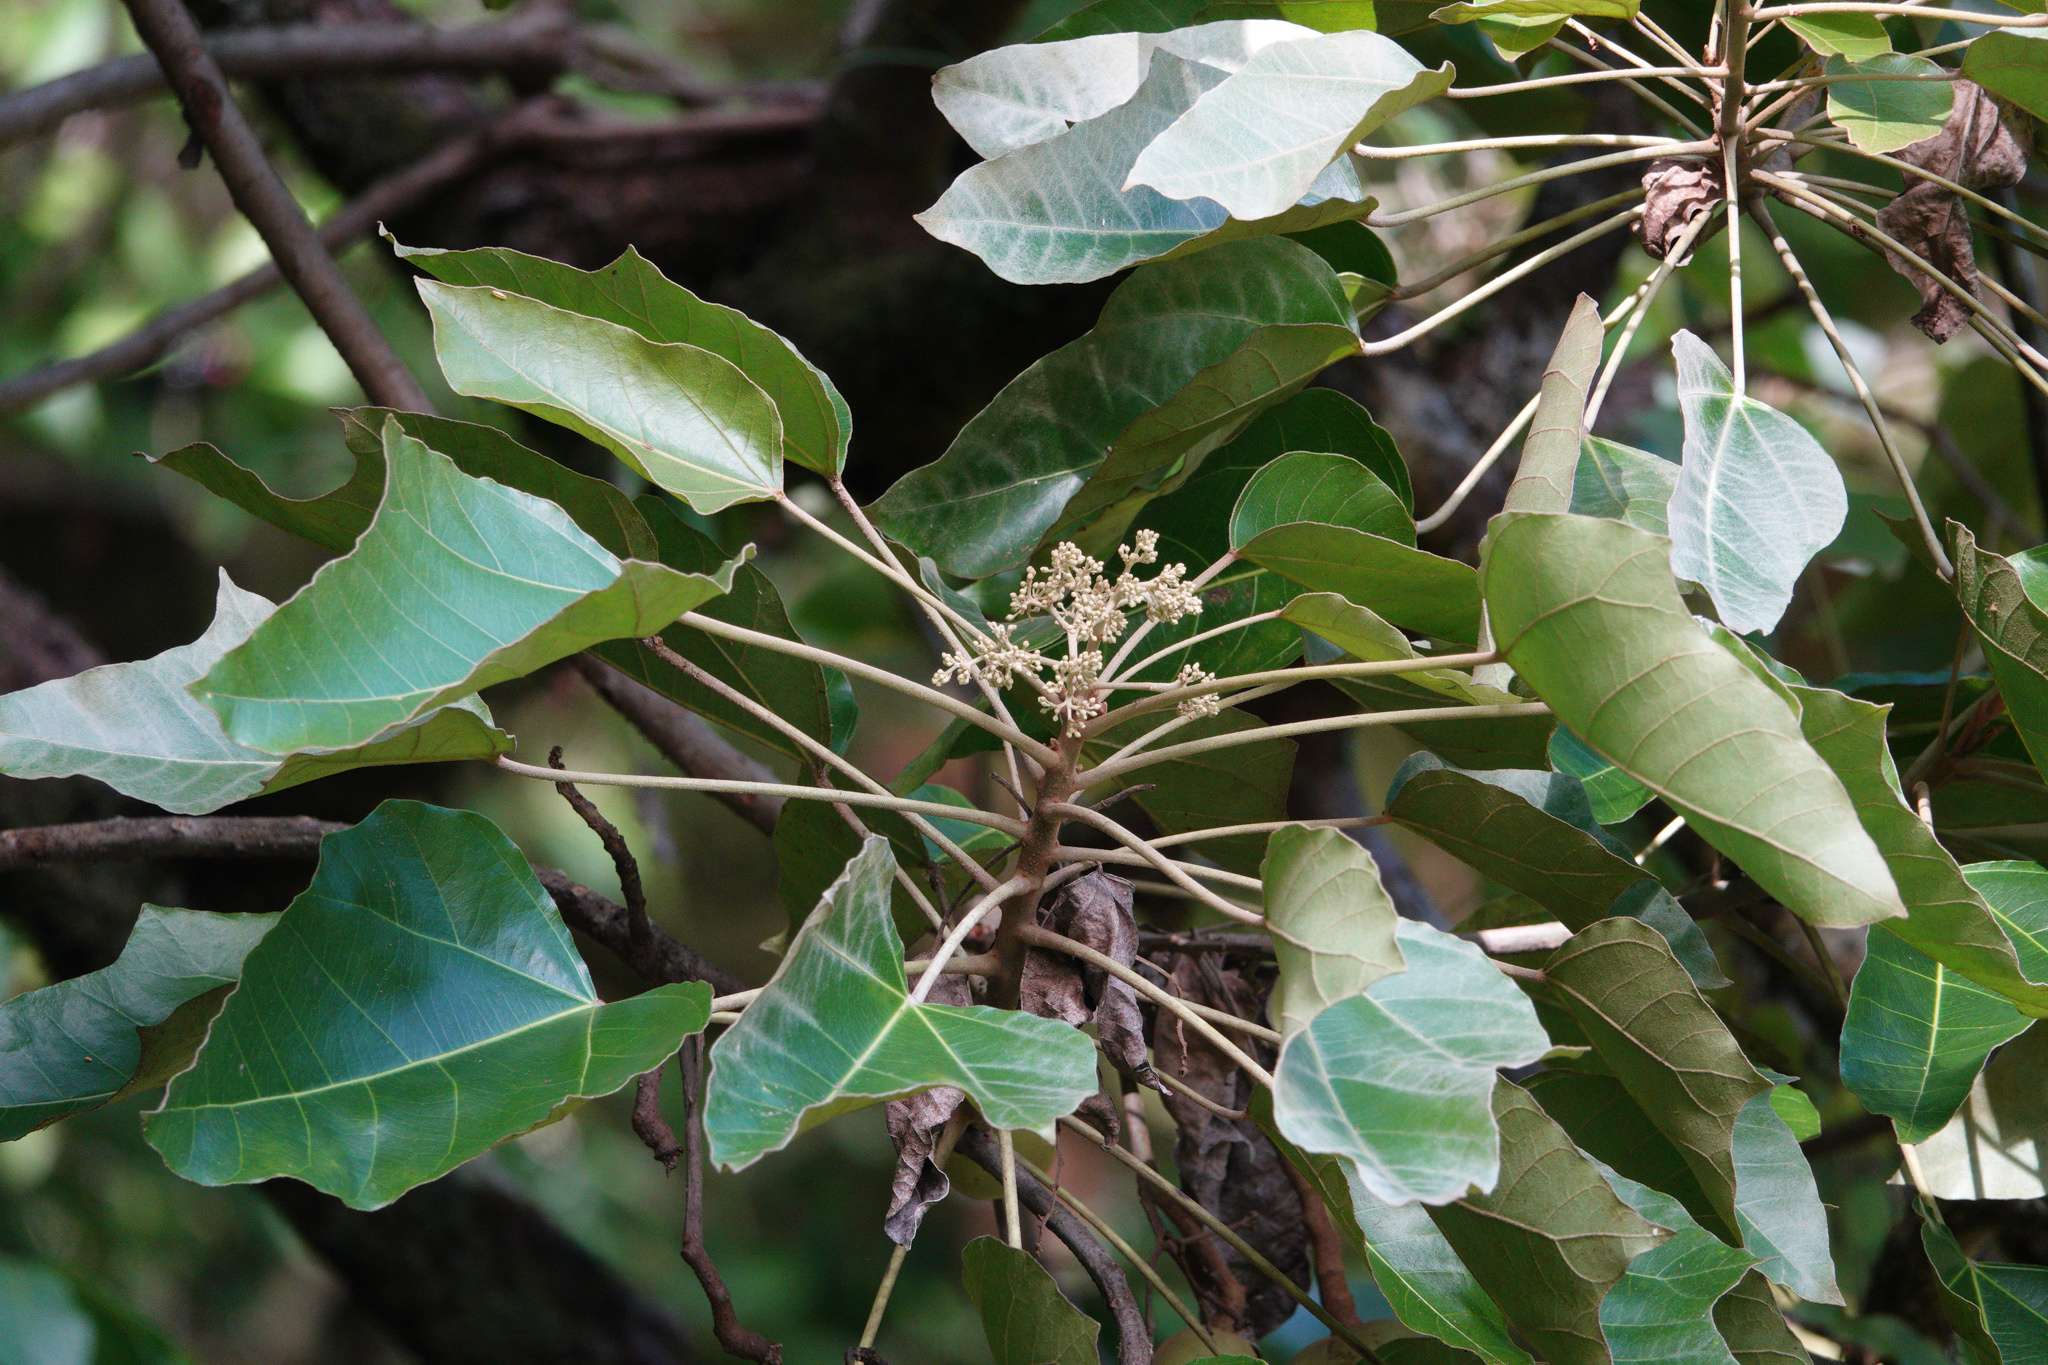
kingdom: Plantae
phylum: Tracheophyta
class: Magnoliopsida
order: Malpighiales
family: Euphorbiaceae
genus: Aleurites
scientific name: Aleurites moluccanus
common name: Candlenut tree
